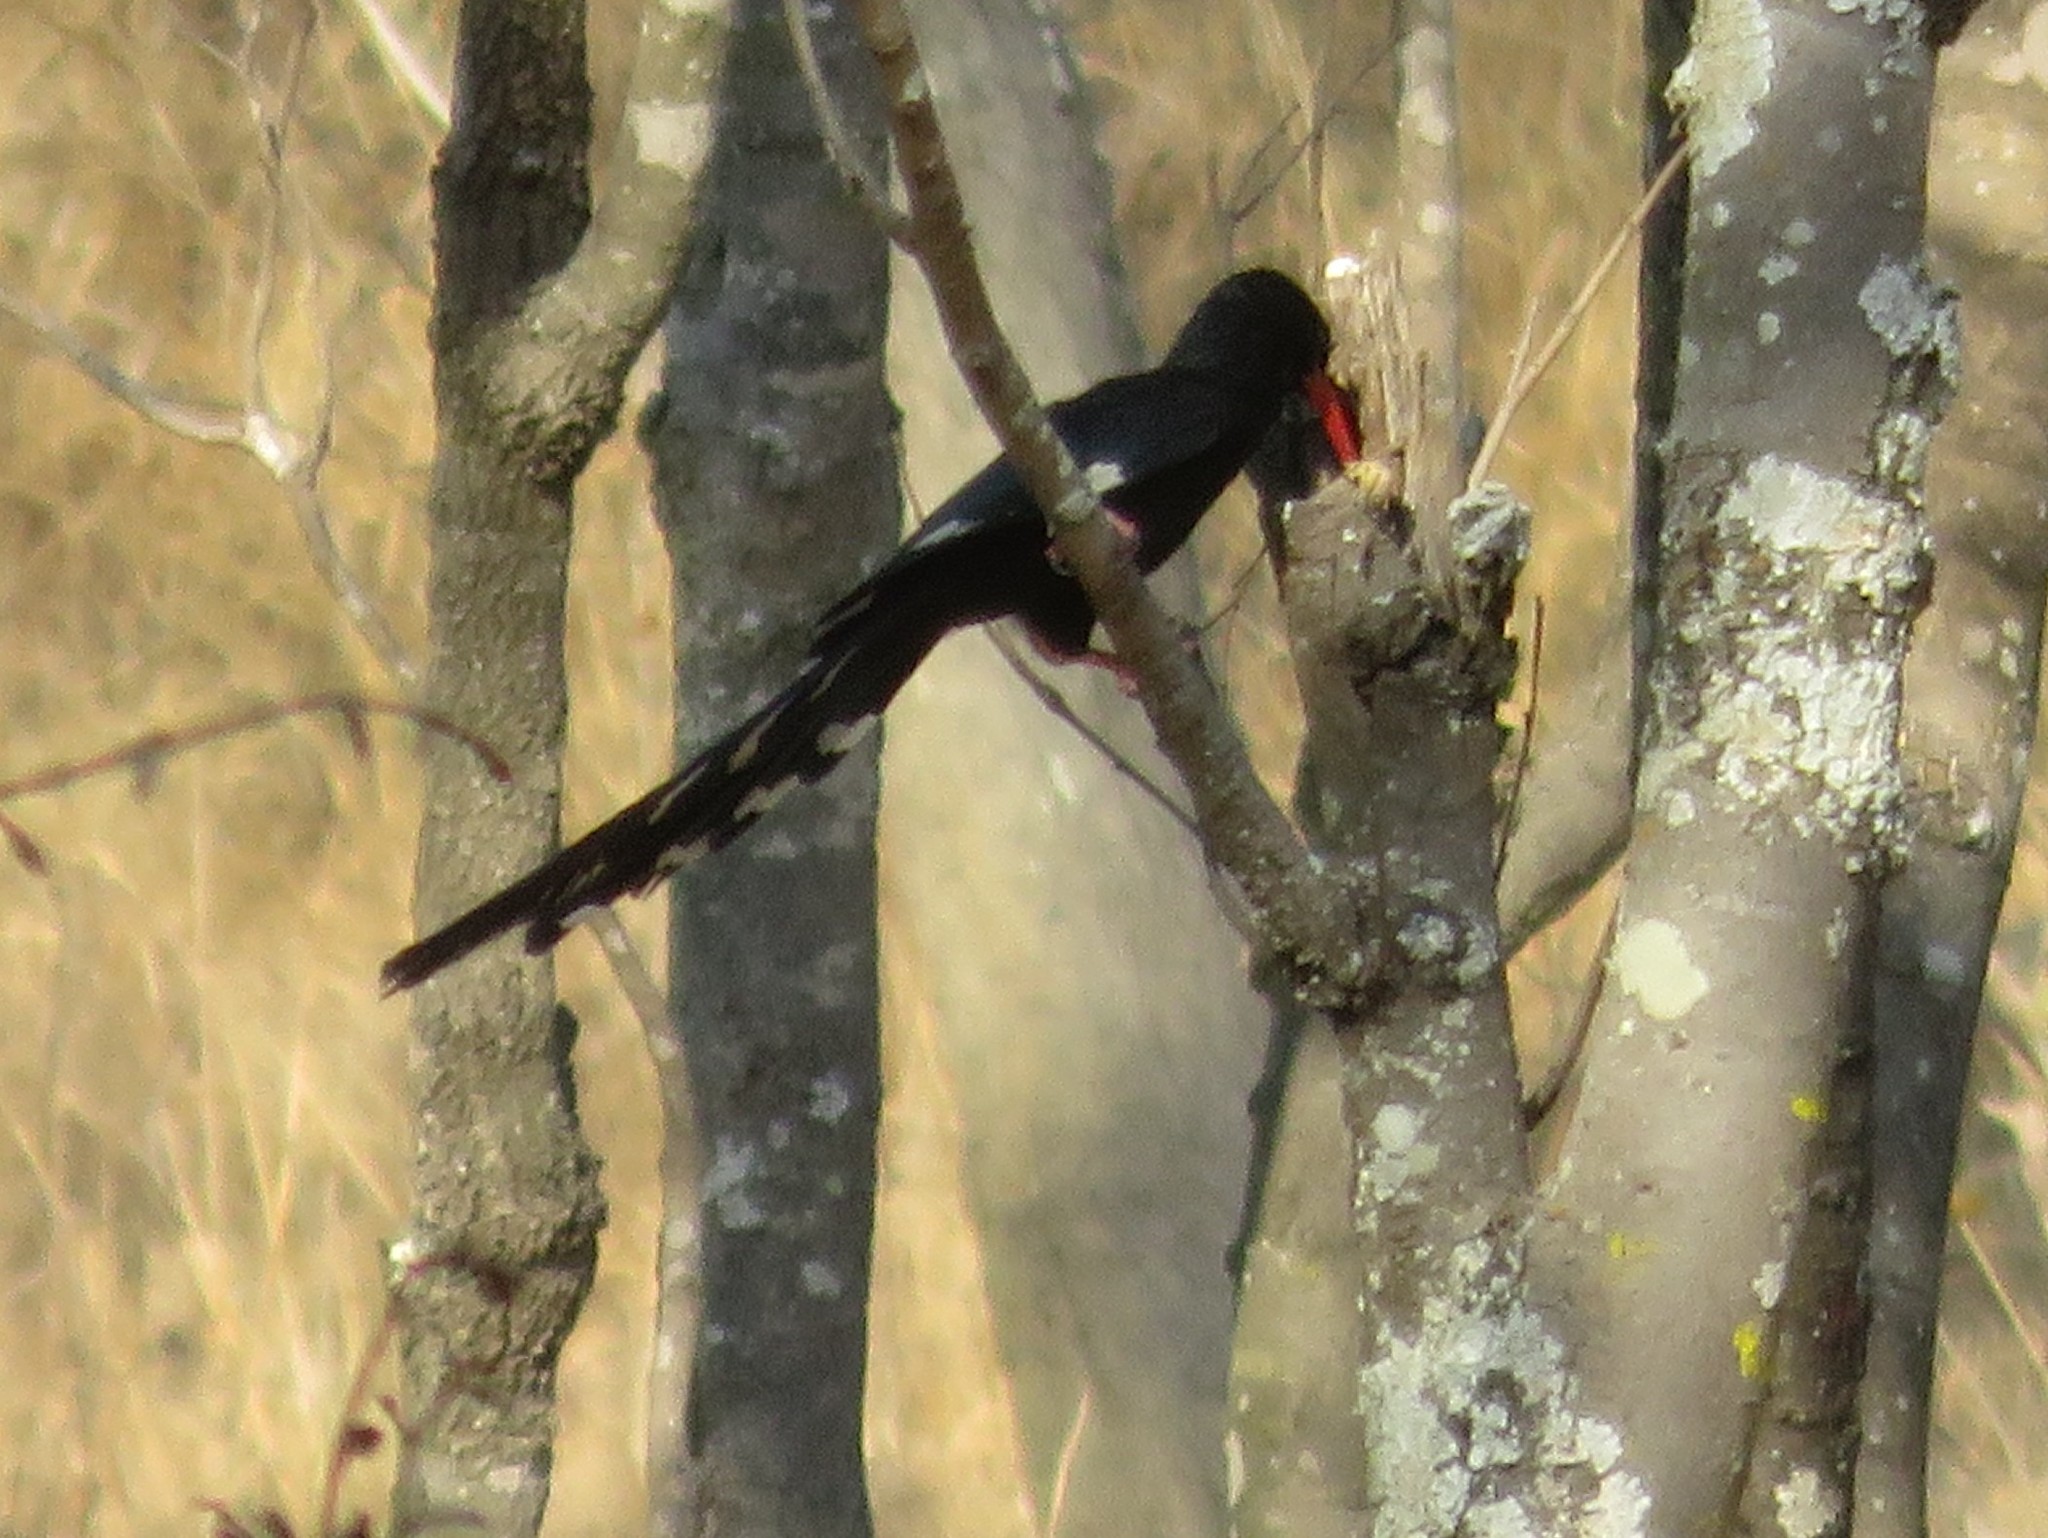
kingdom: Animalia
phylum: Chordata
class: Aves
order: Bucerotiformes
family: Phoeniculidae
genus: Phoeniculus
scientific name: Phoeniculus purpureus
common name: Green woodhoopoe
